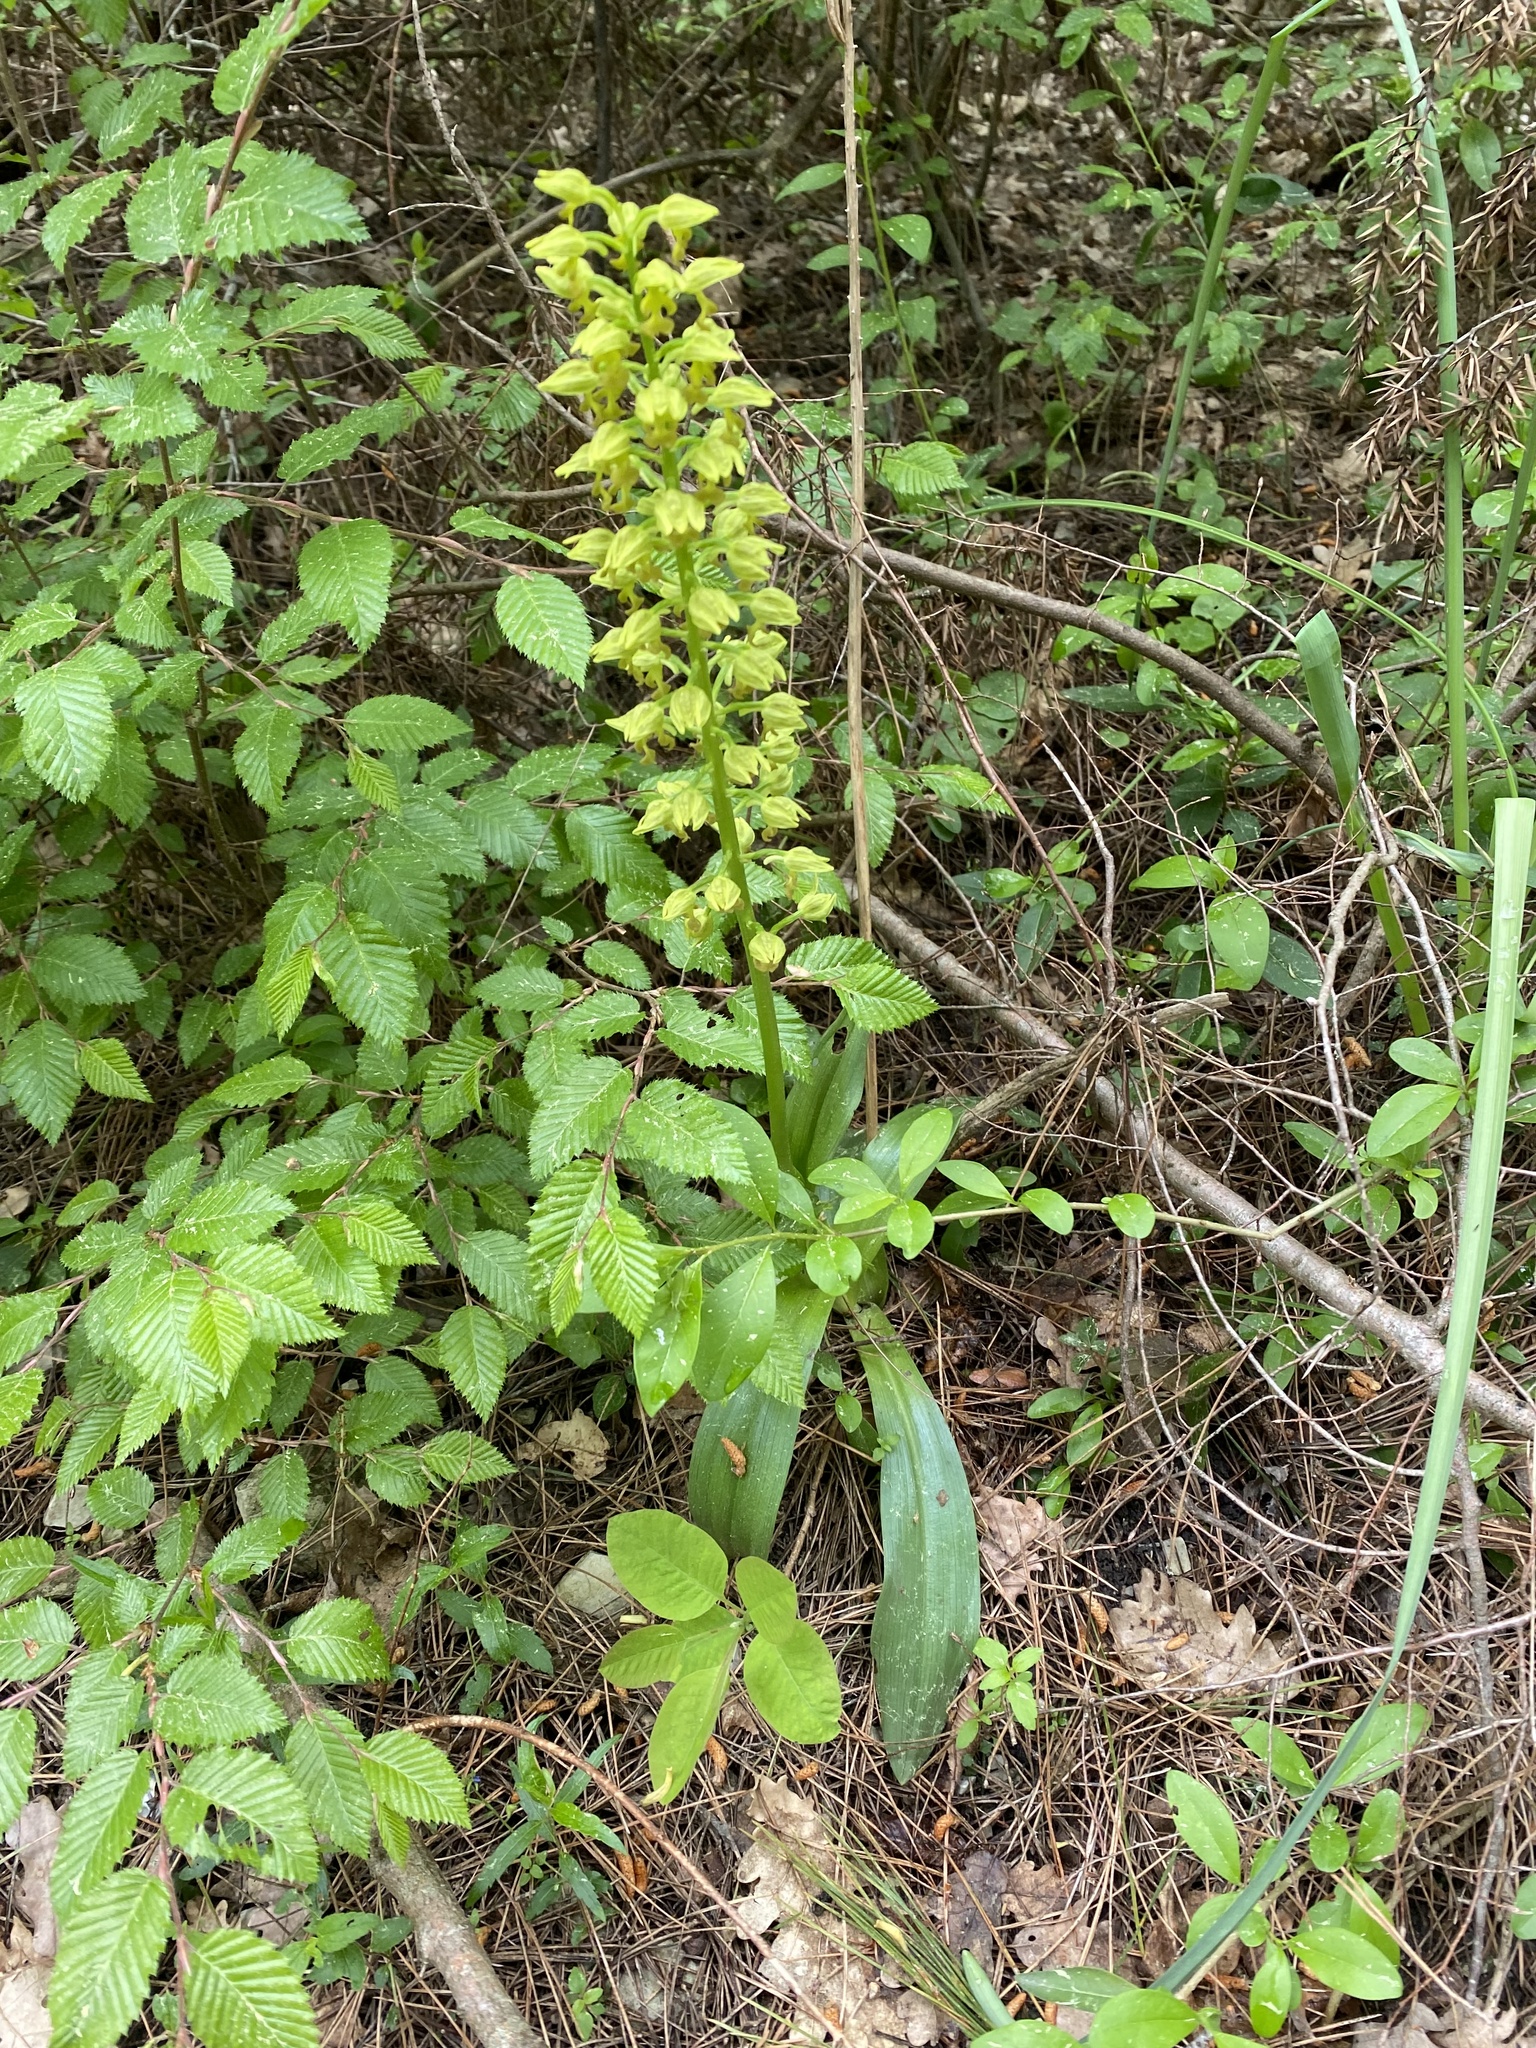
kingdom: Plantae
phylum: Tracheophyta
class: Liliopsida
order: Asparagales
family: Orchidaceae
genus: Orchis
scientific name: Orchis punctulata
